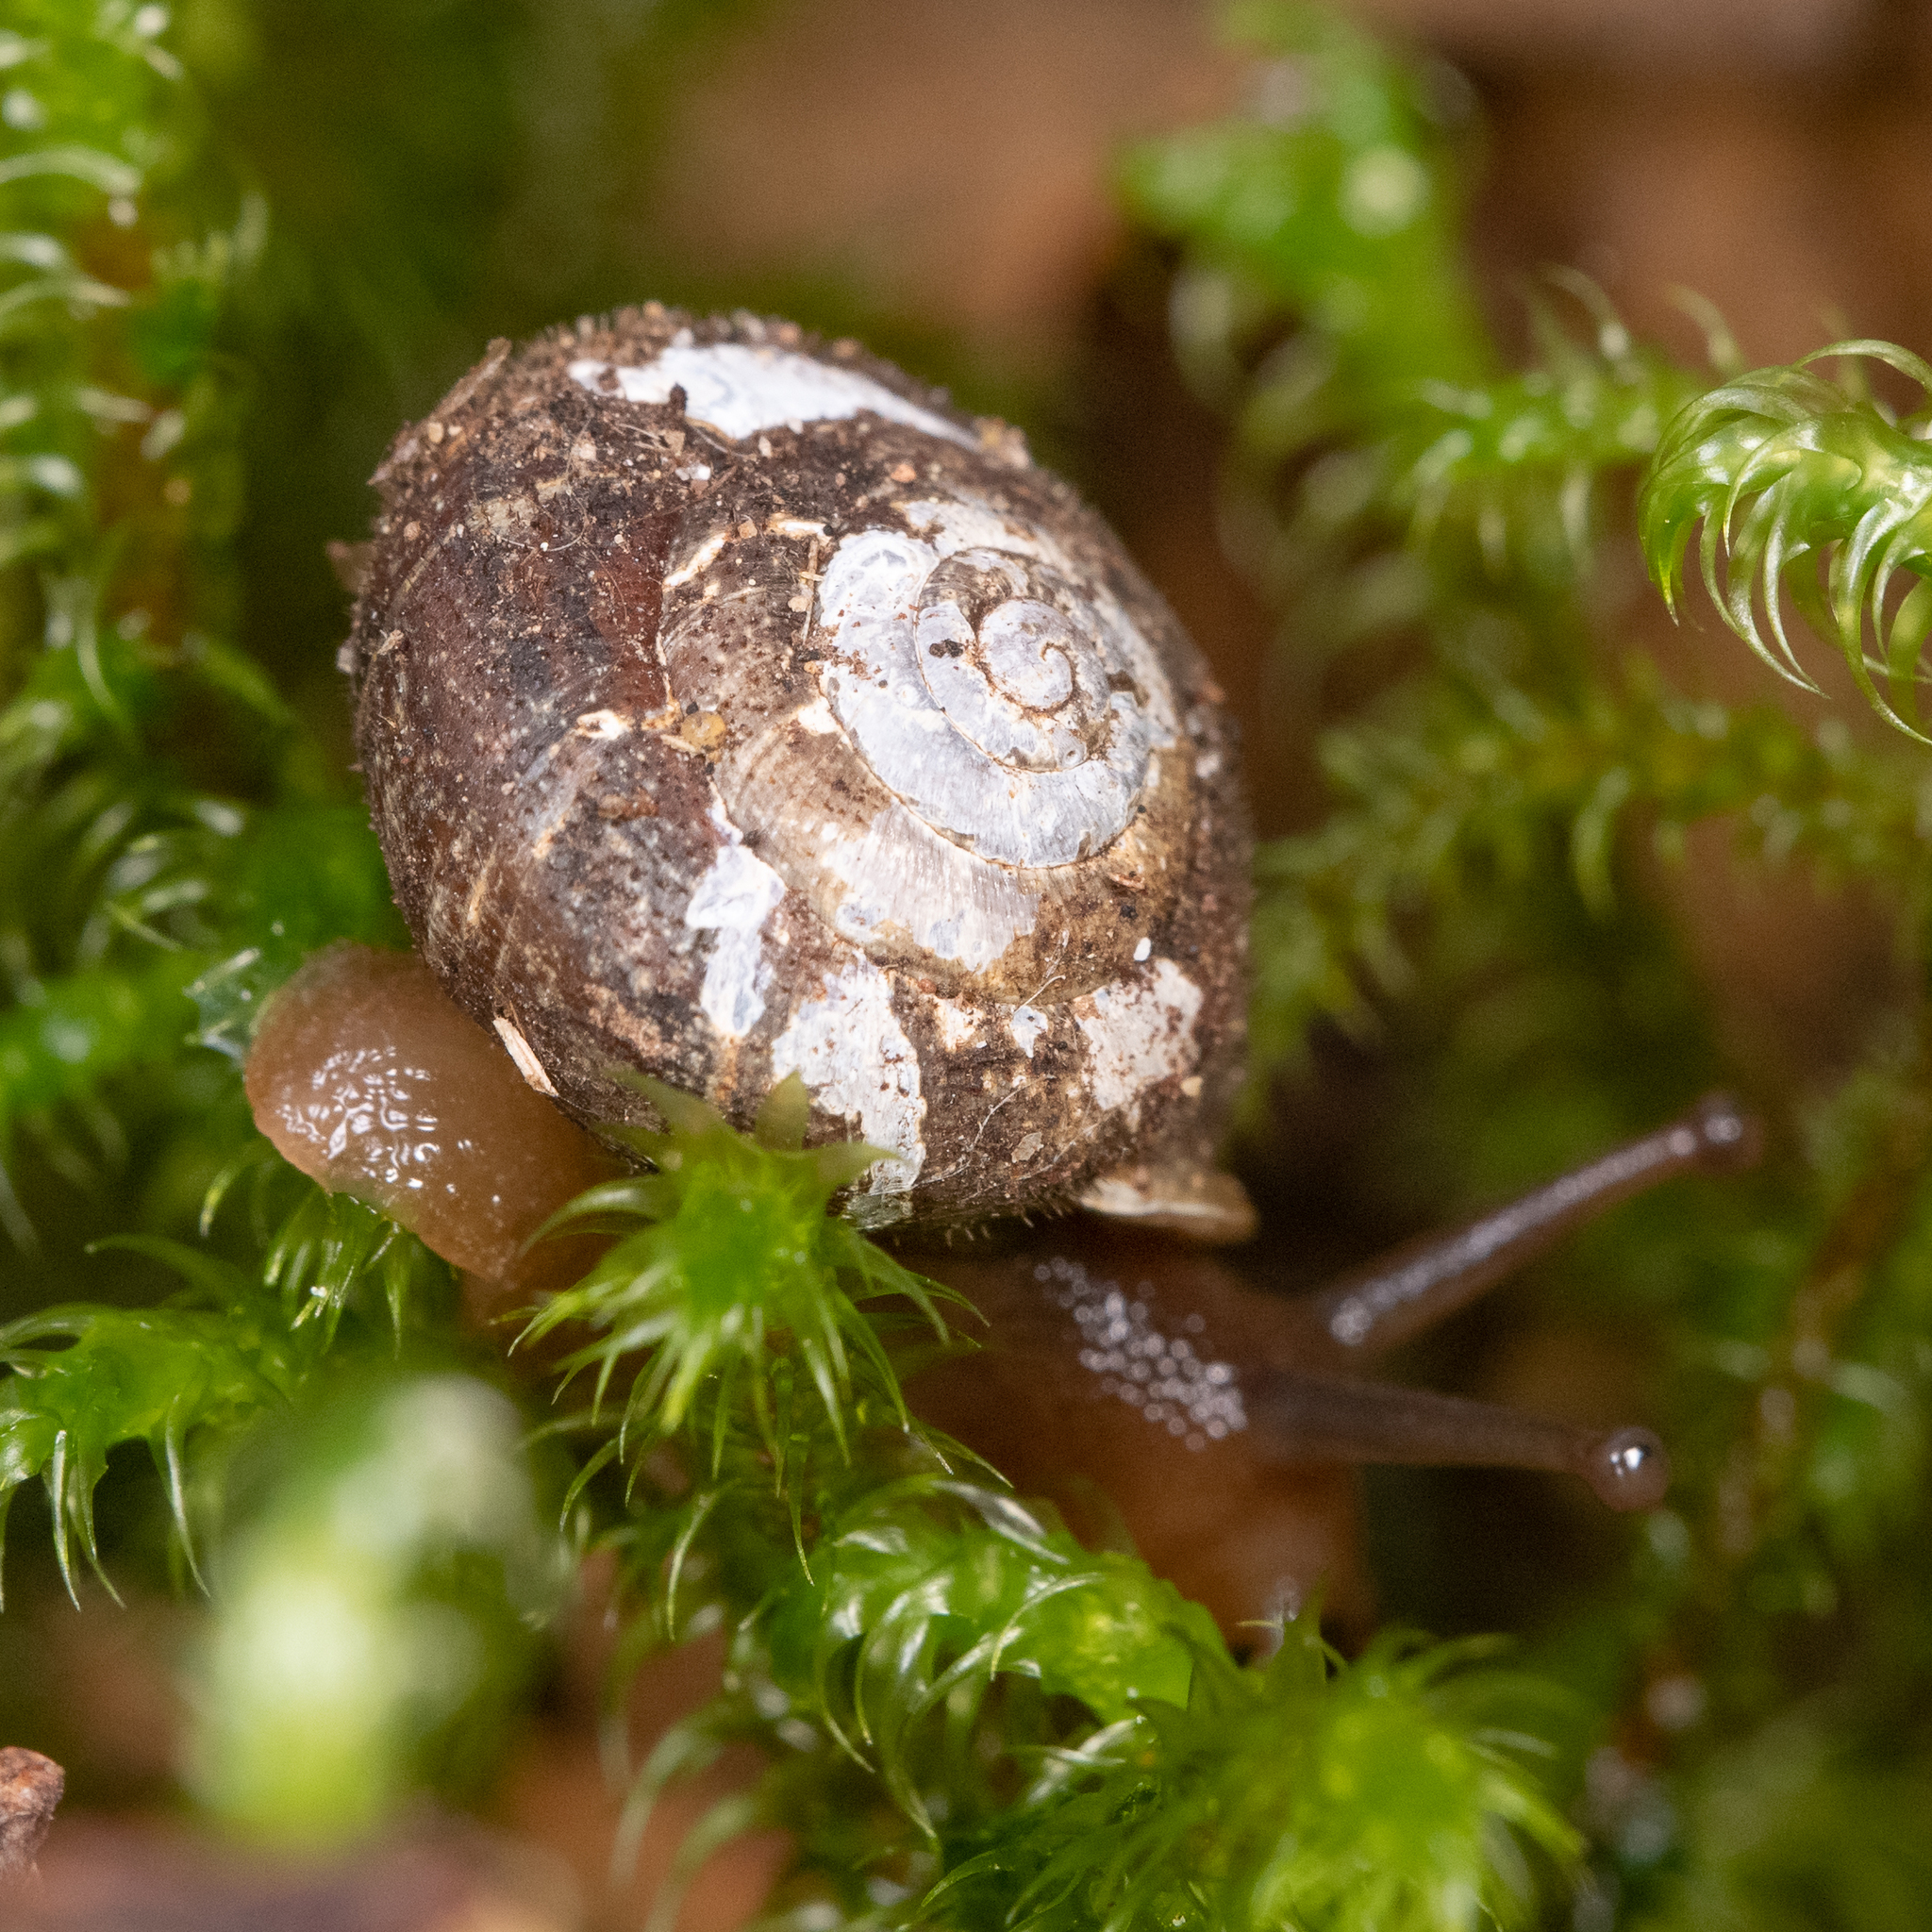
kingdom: Animalia
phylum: Mollusca
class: Gastropoda
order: Stylommatophora
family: Polygyridae
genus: Vespericola
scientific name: Vespericola columbianus
